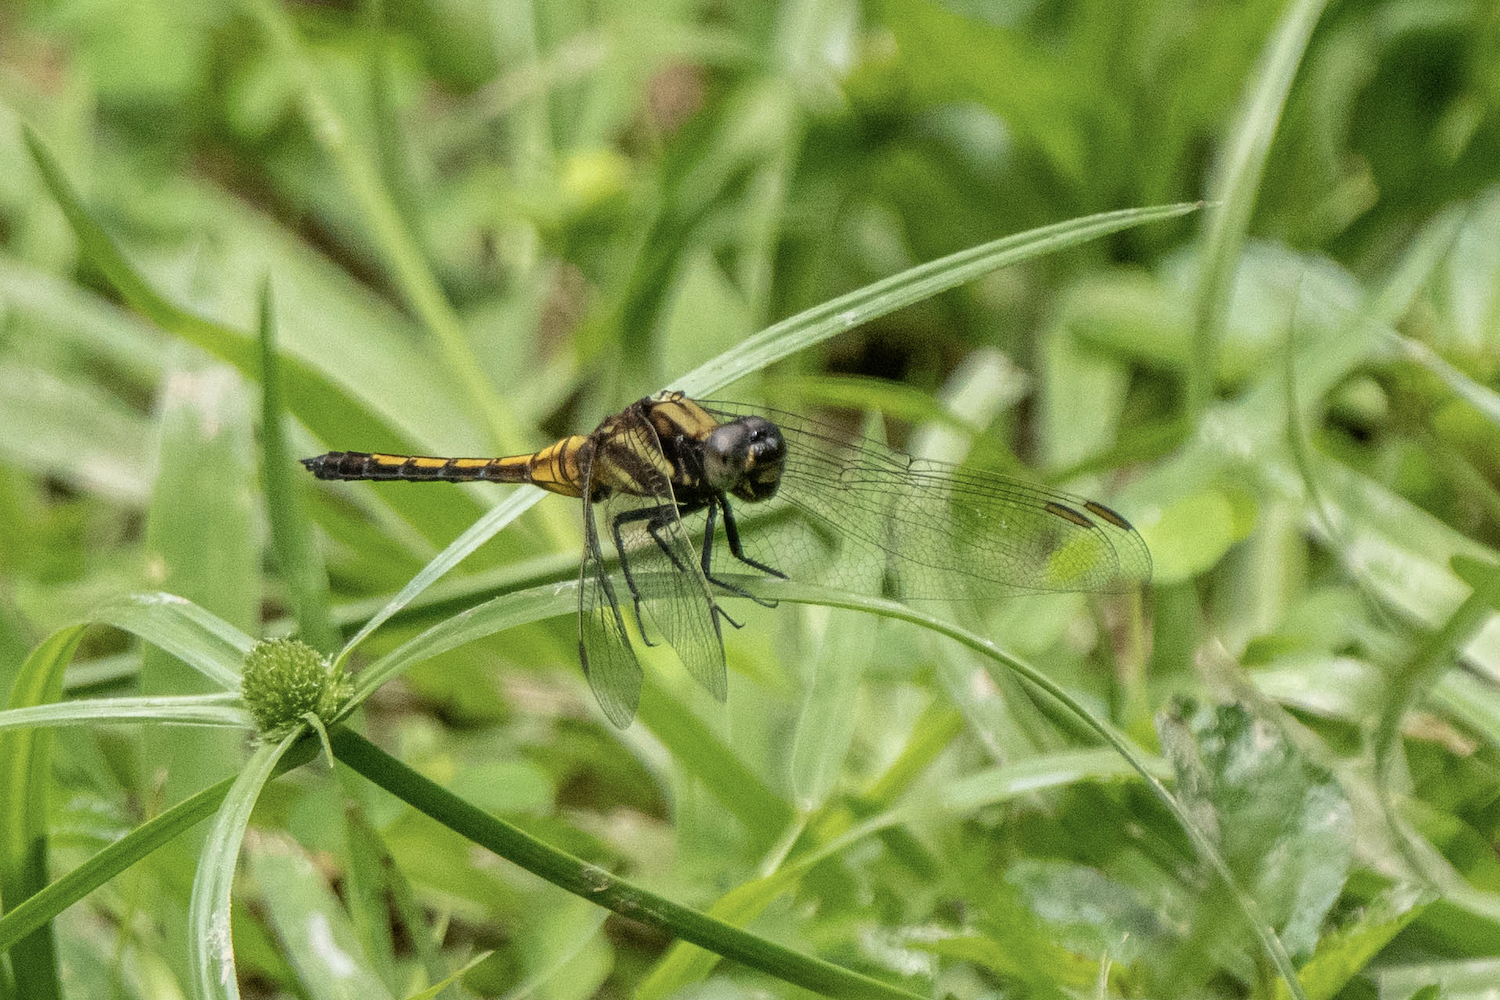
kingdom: Animalia
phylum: Arthropoda
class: Insecta
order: Odonata
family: Libellulidae
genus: Orthetrum
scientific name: Orthetrum glaucum
